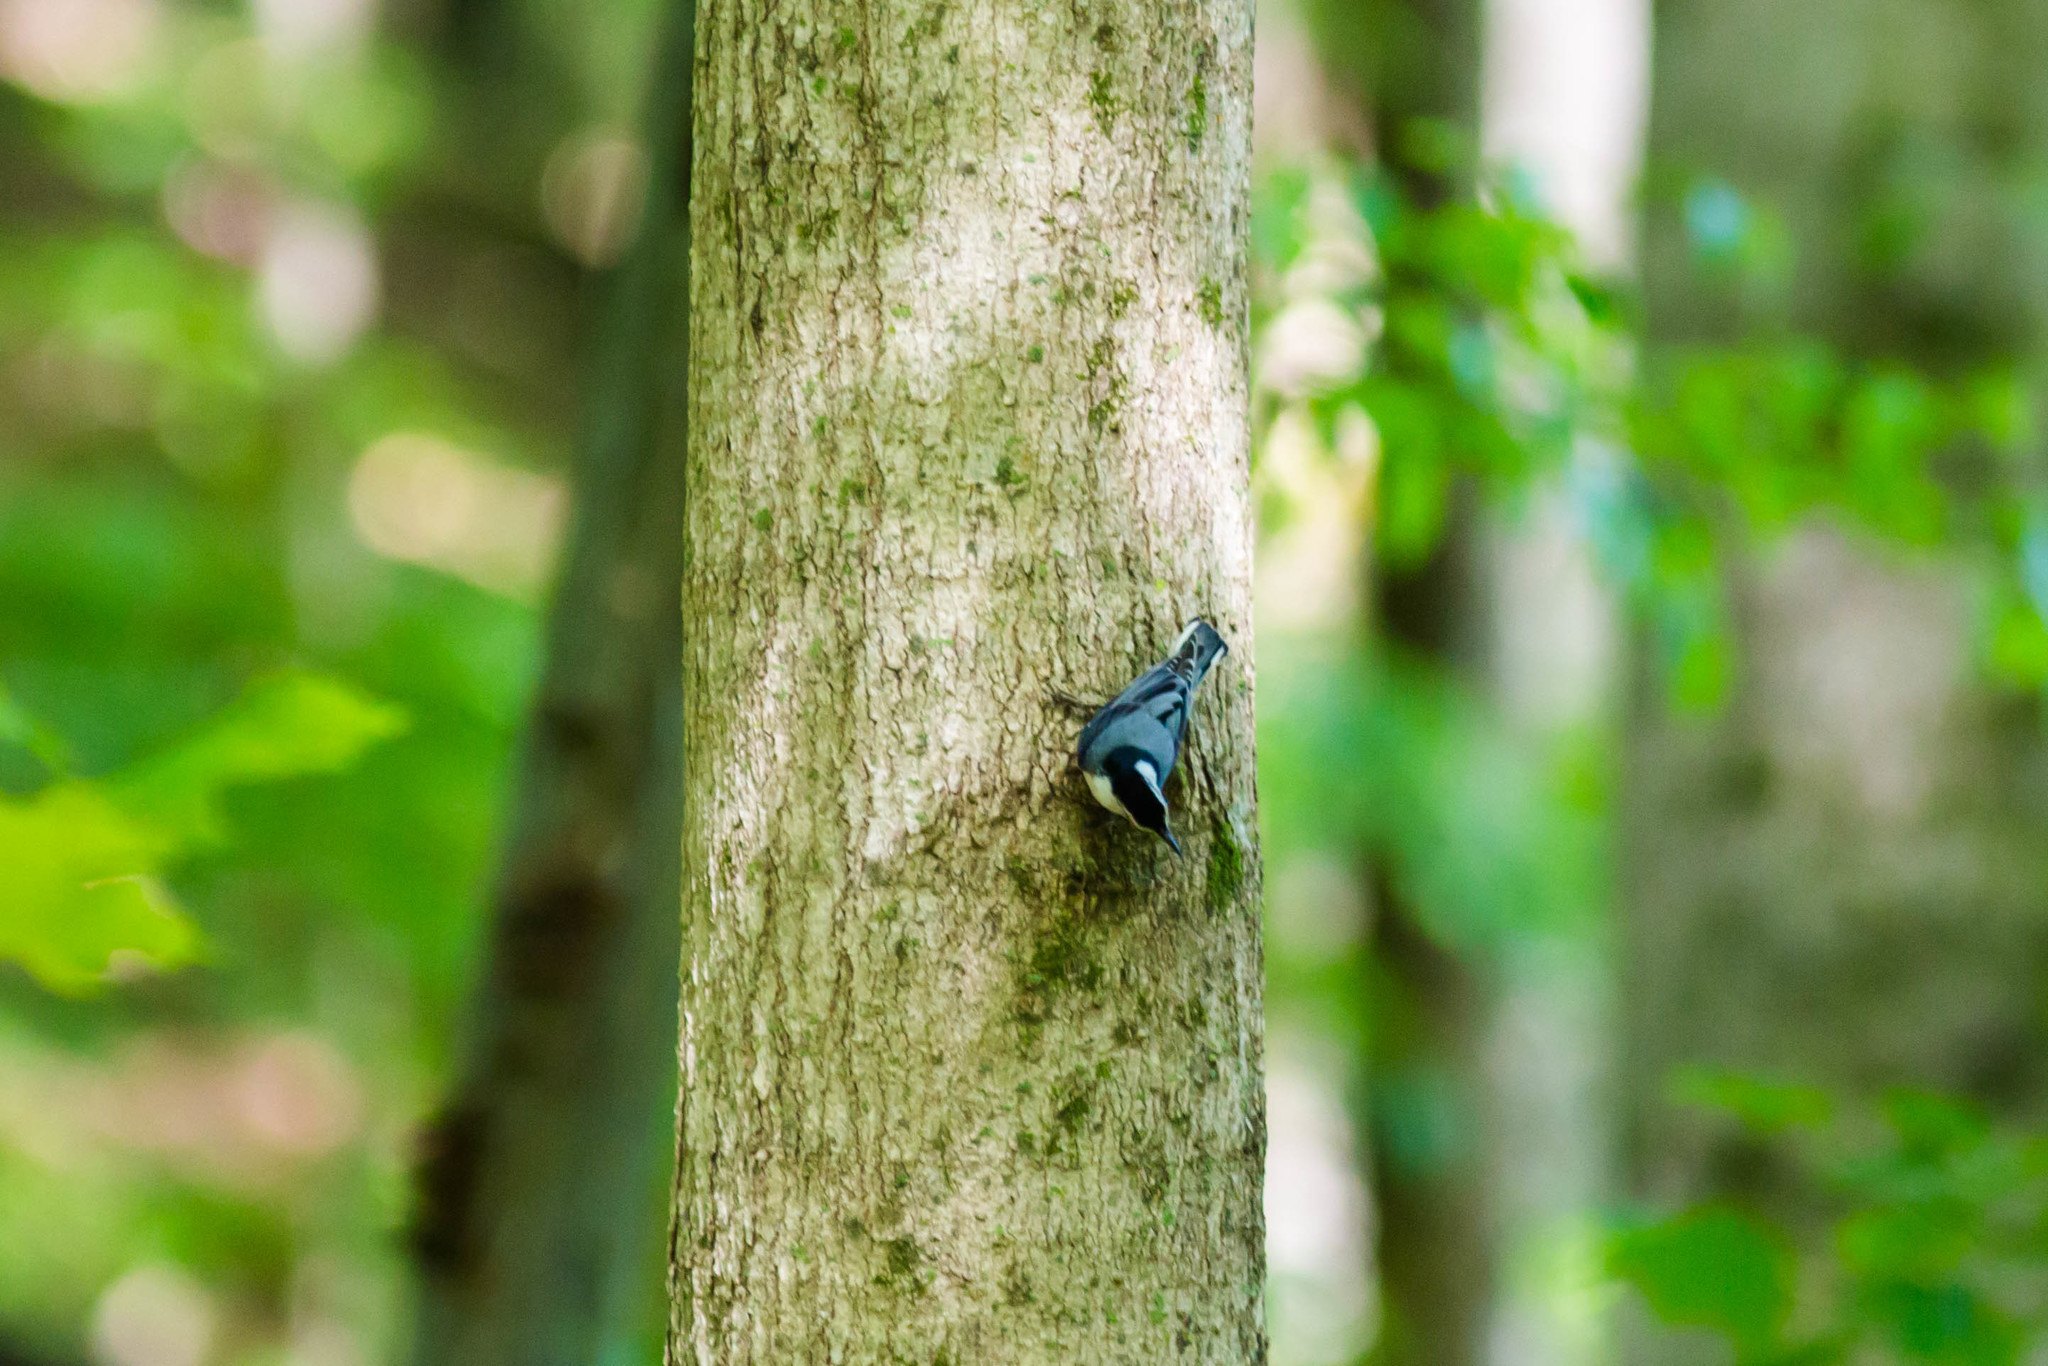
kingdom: Animalia
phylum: Chordata
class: Aves
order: Passeriformes
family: Sittidae
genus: Sitta
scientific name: Sitta carolinensis
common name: White-breasted nuthatch
